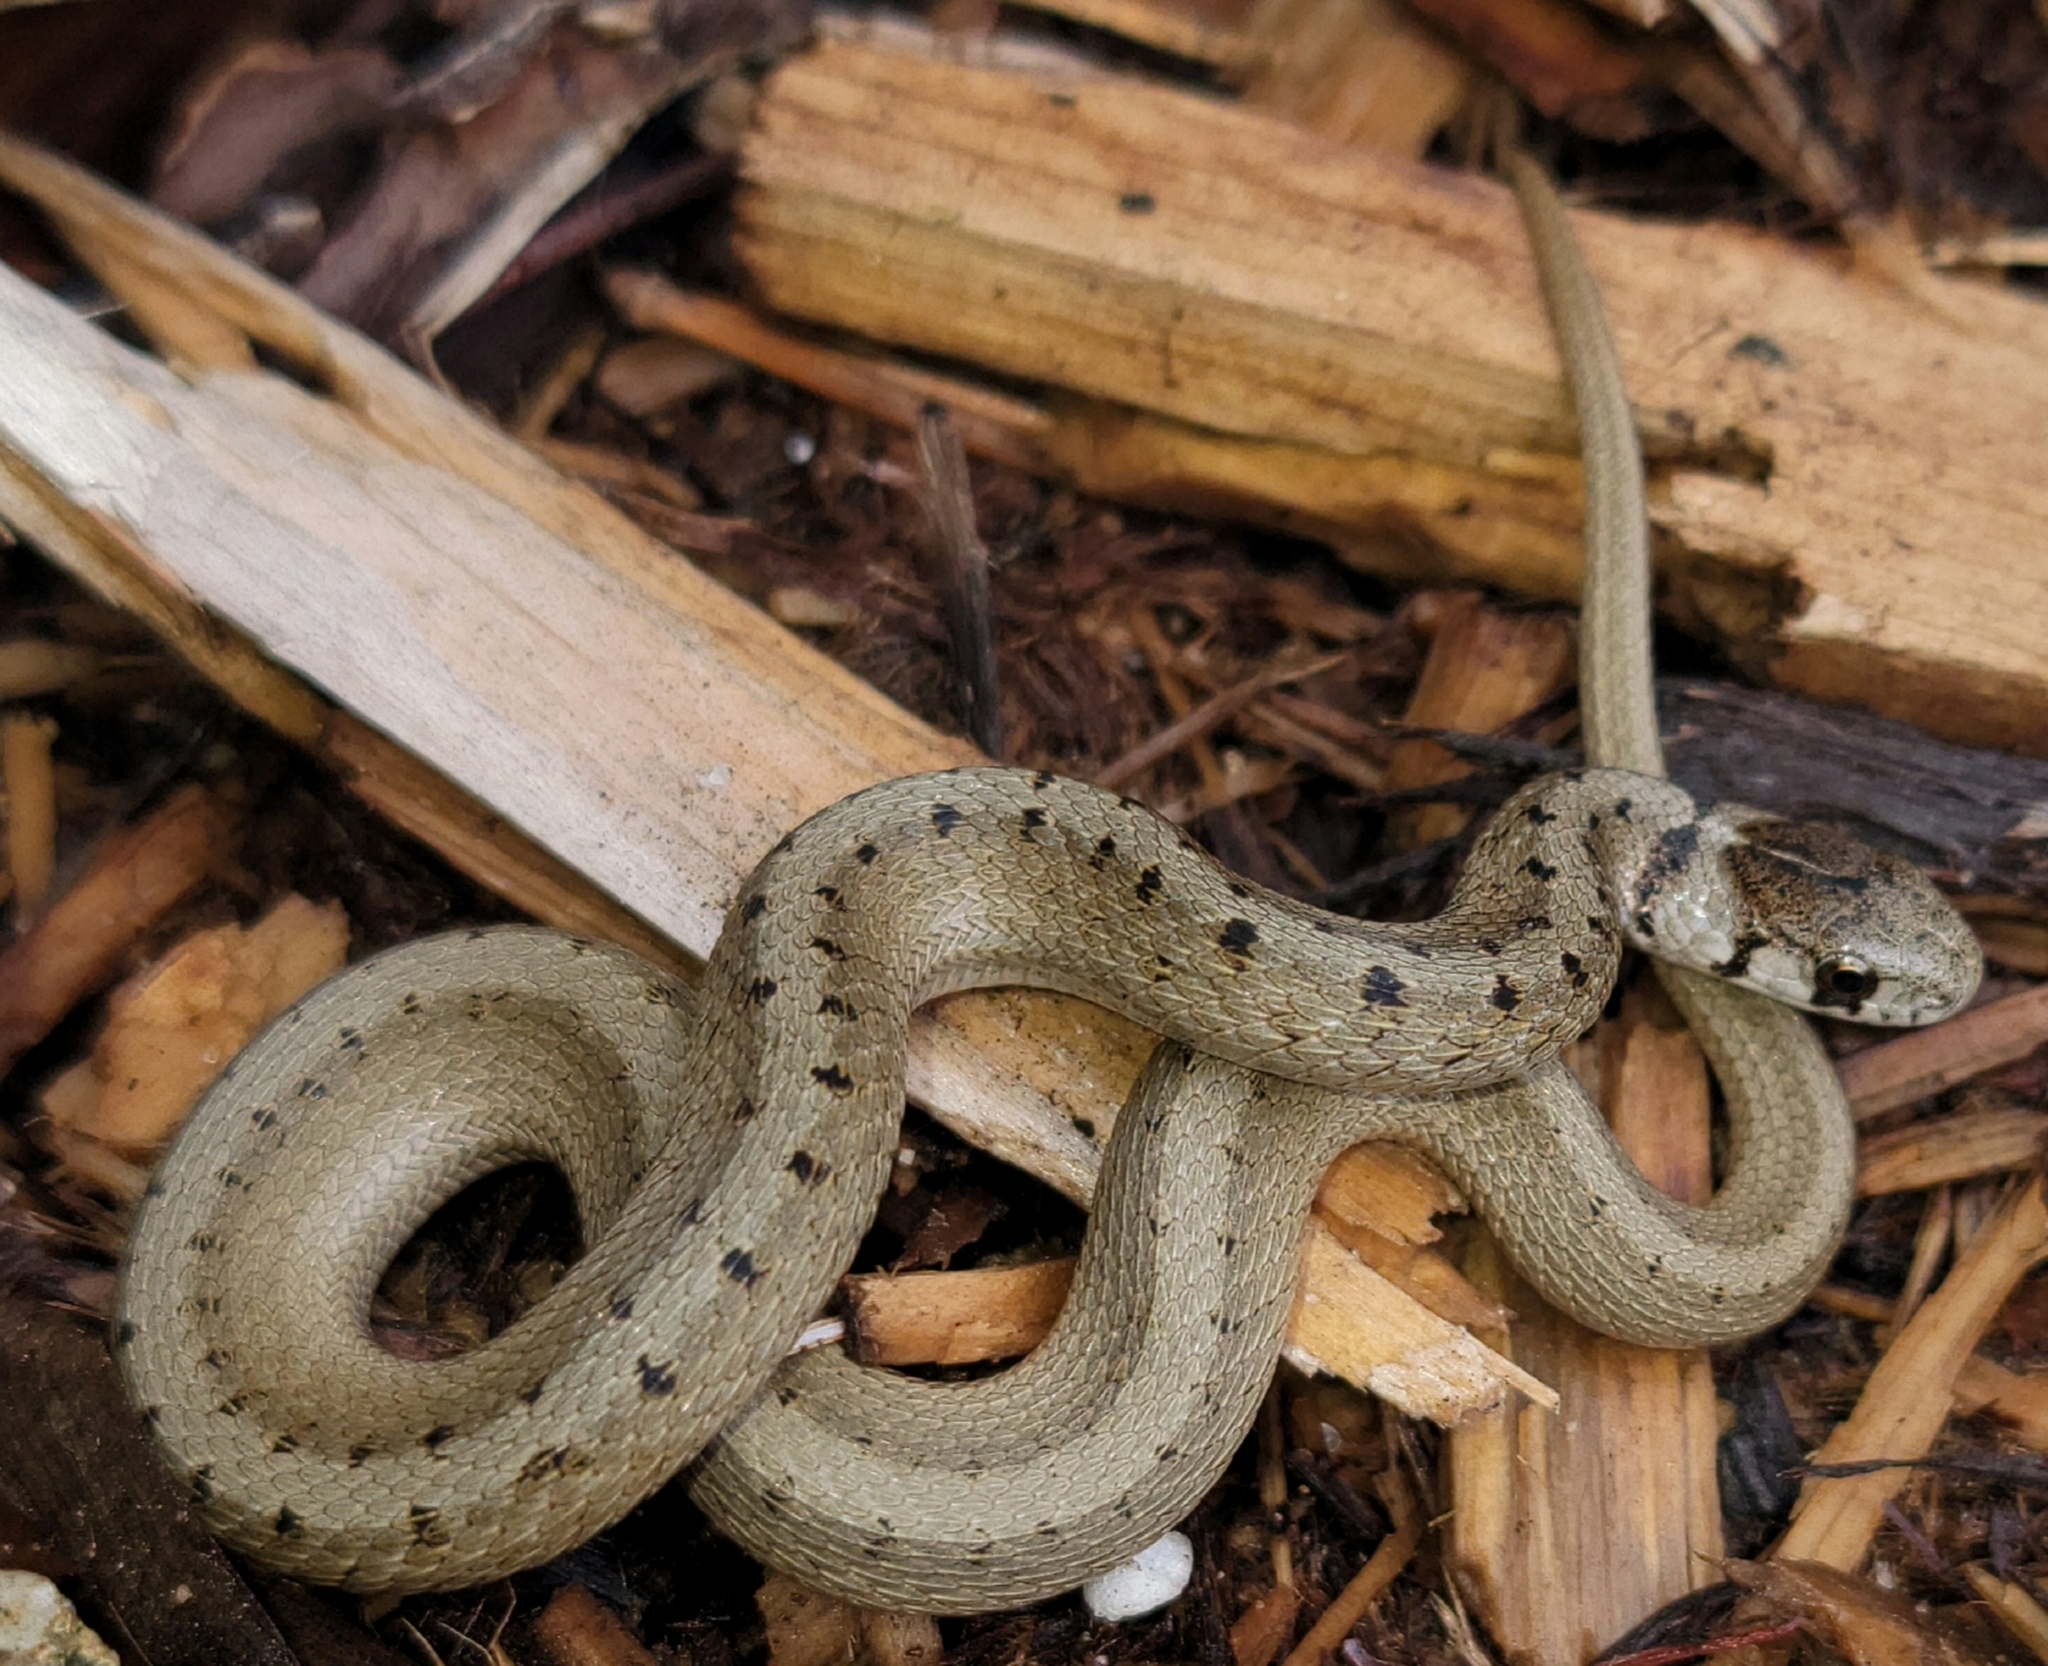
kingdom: Animalia
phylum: Chordata
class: Squamata
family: Colubridae
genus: Storeria
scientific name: Storeria dekayi
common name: (dekay’s) brown snake
